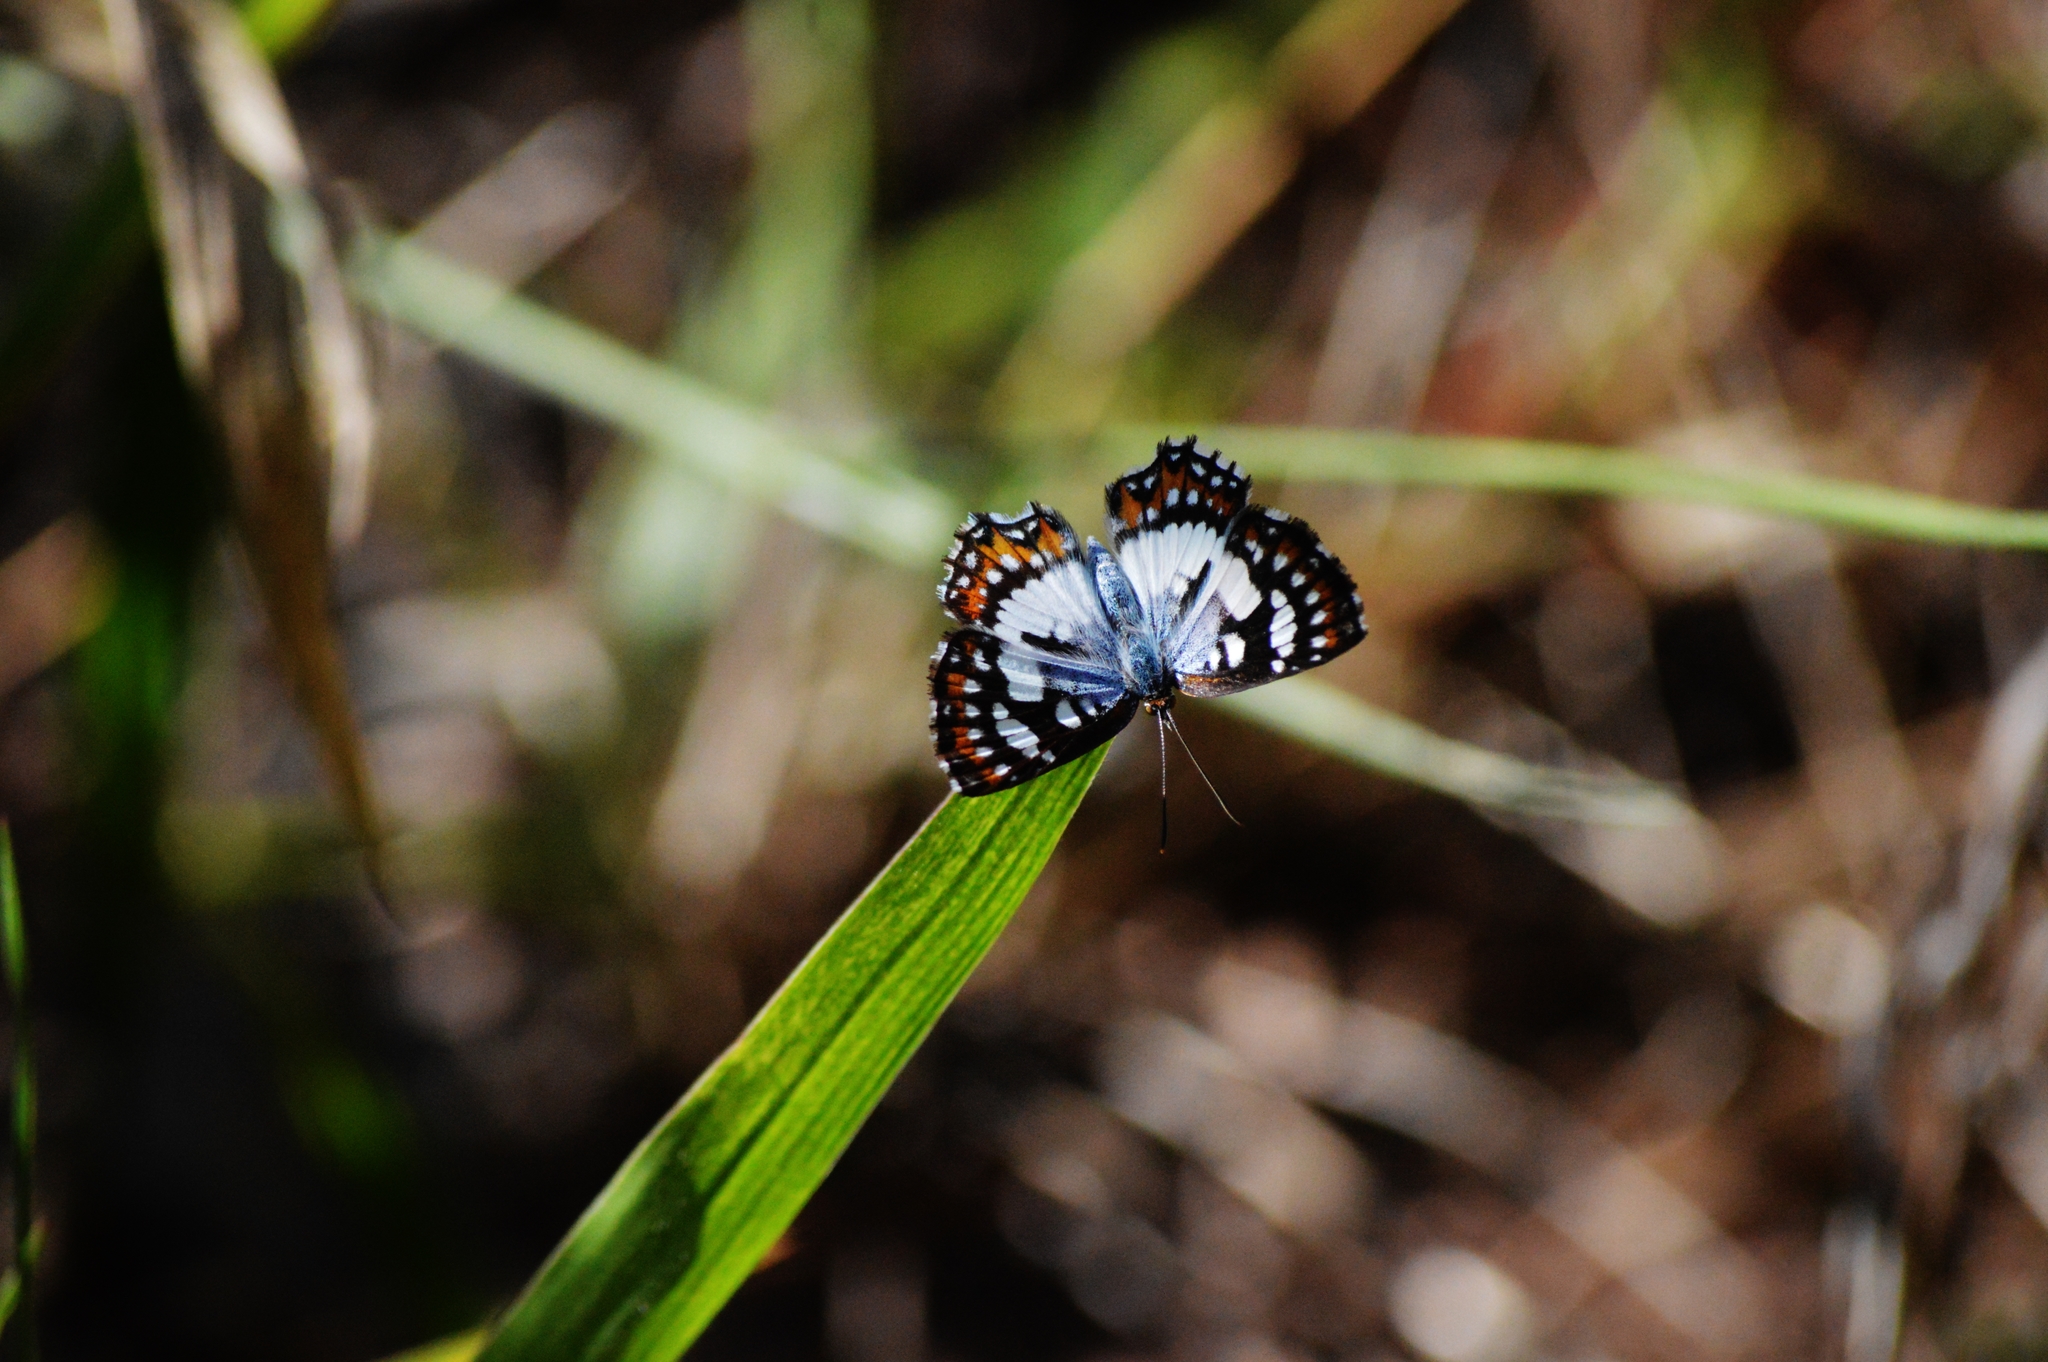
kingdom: Animalia
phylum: Arthropoda
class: Insecta
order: Lepidoptera
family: Riodinidae
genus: Ariconias
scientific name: Ariconias glaphyra
